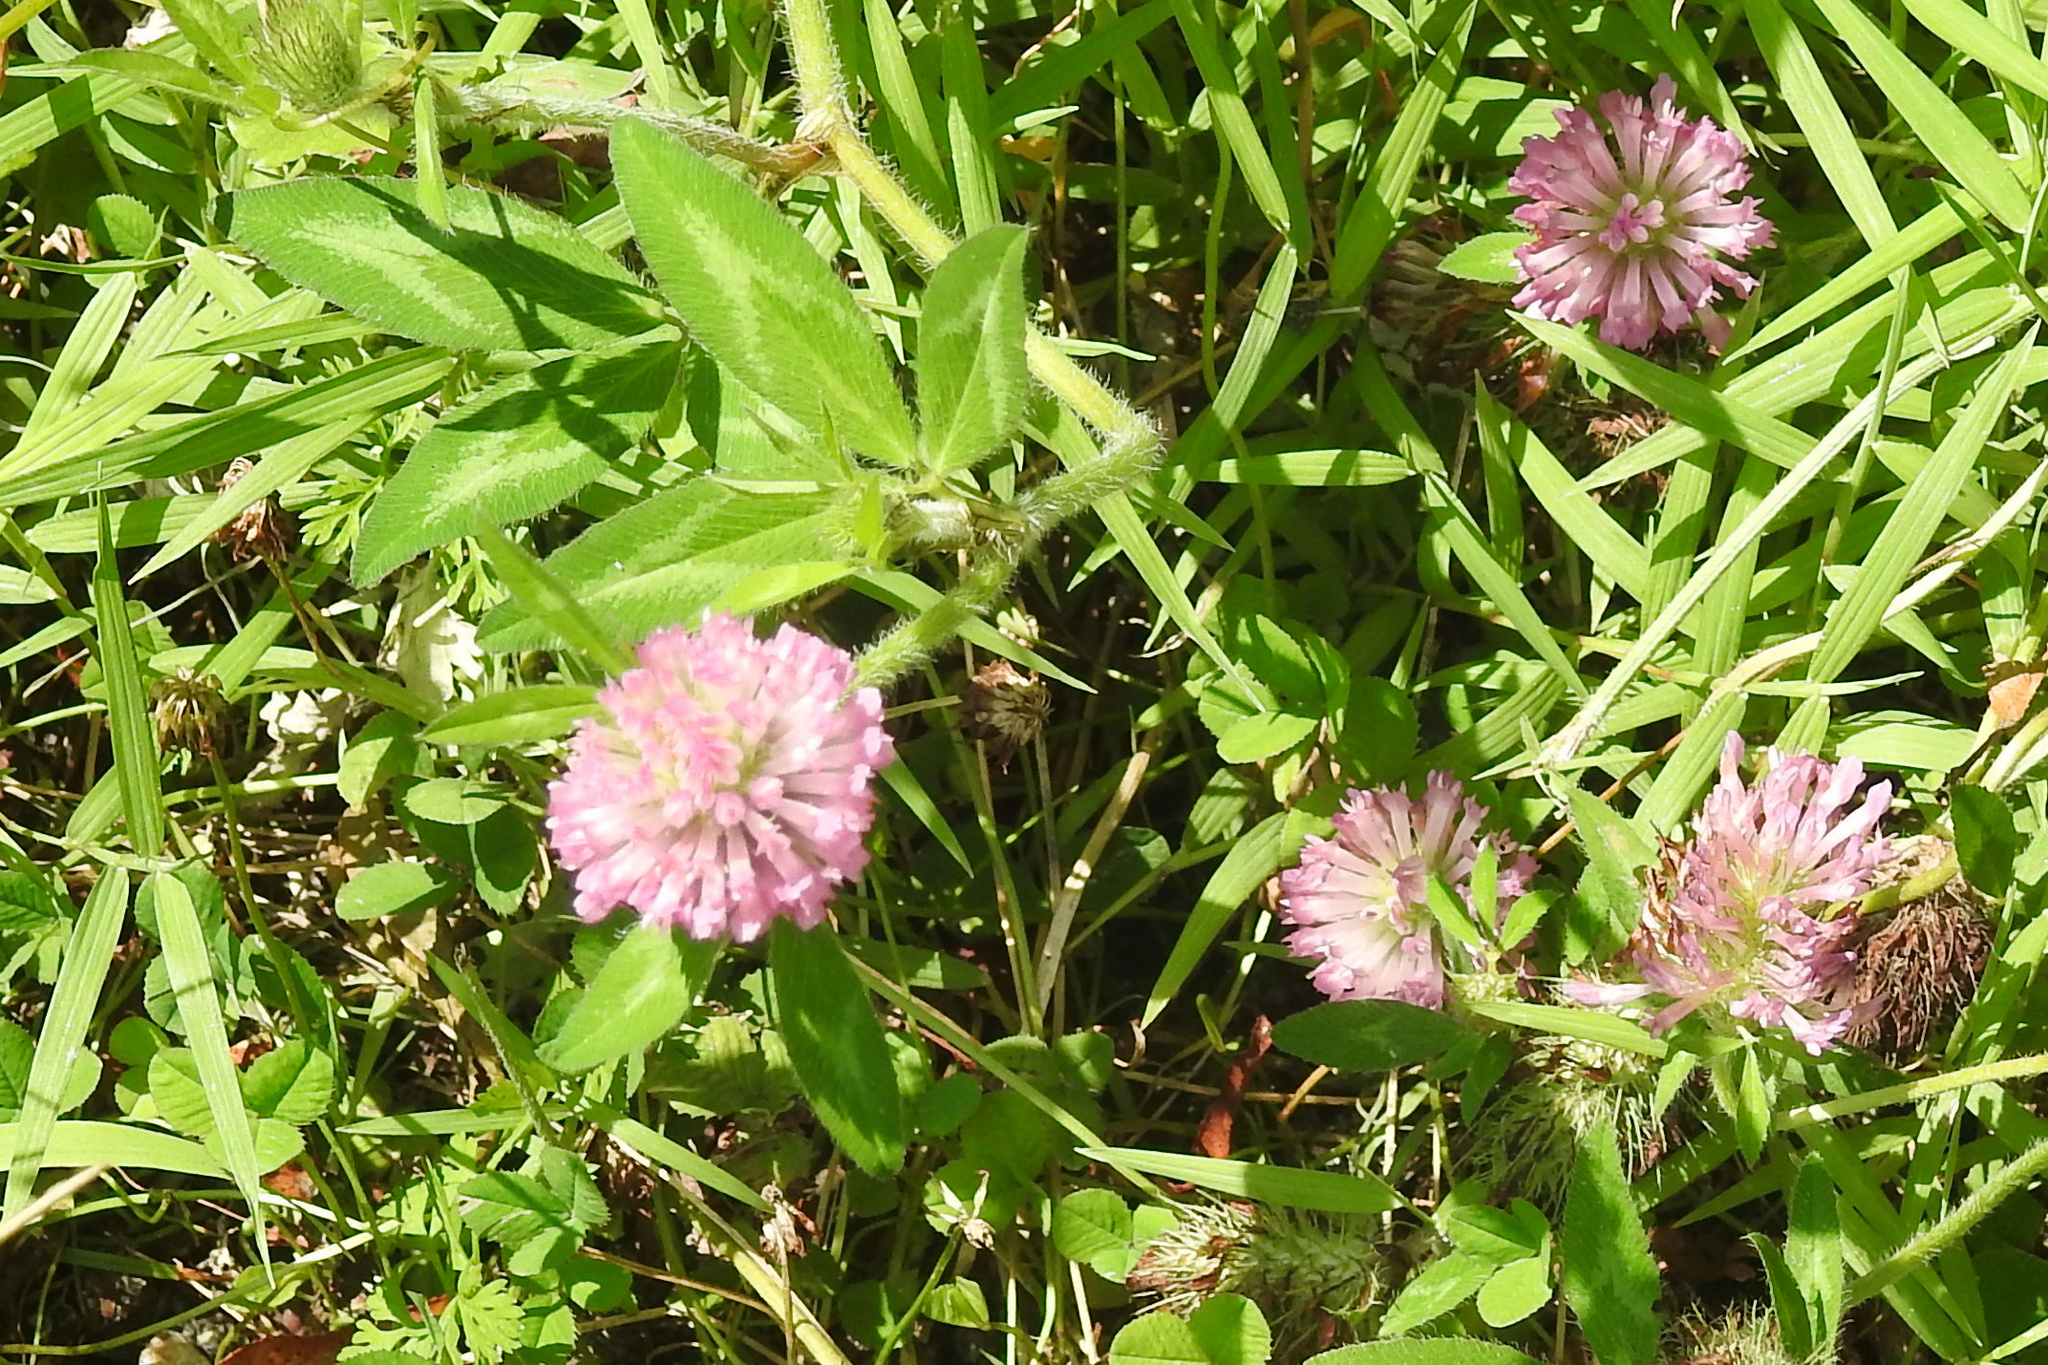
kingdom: Plantae
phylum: Tracheophyta
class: Magnoliopsida
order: Fabales
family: Fabaceae
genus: Trifolium
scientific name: Trifolium pratense
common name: Red clover
